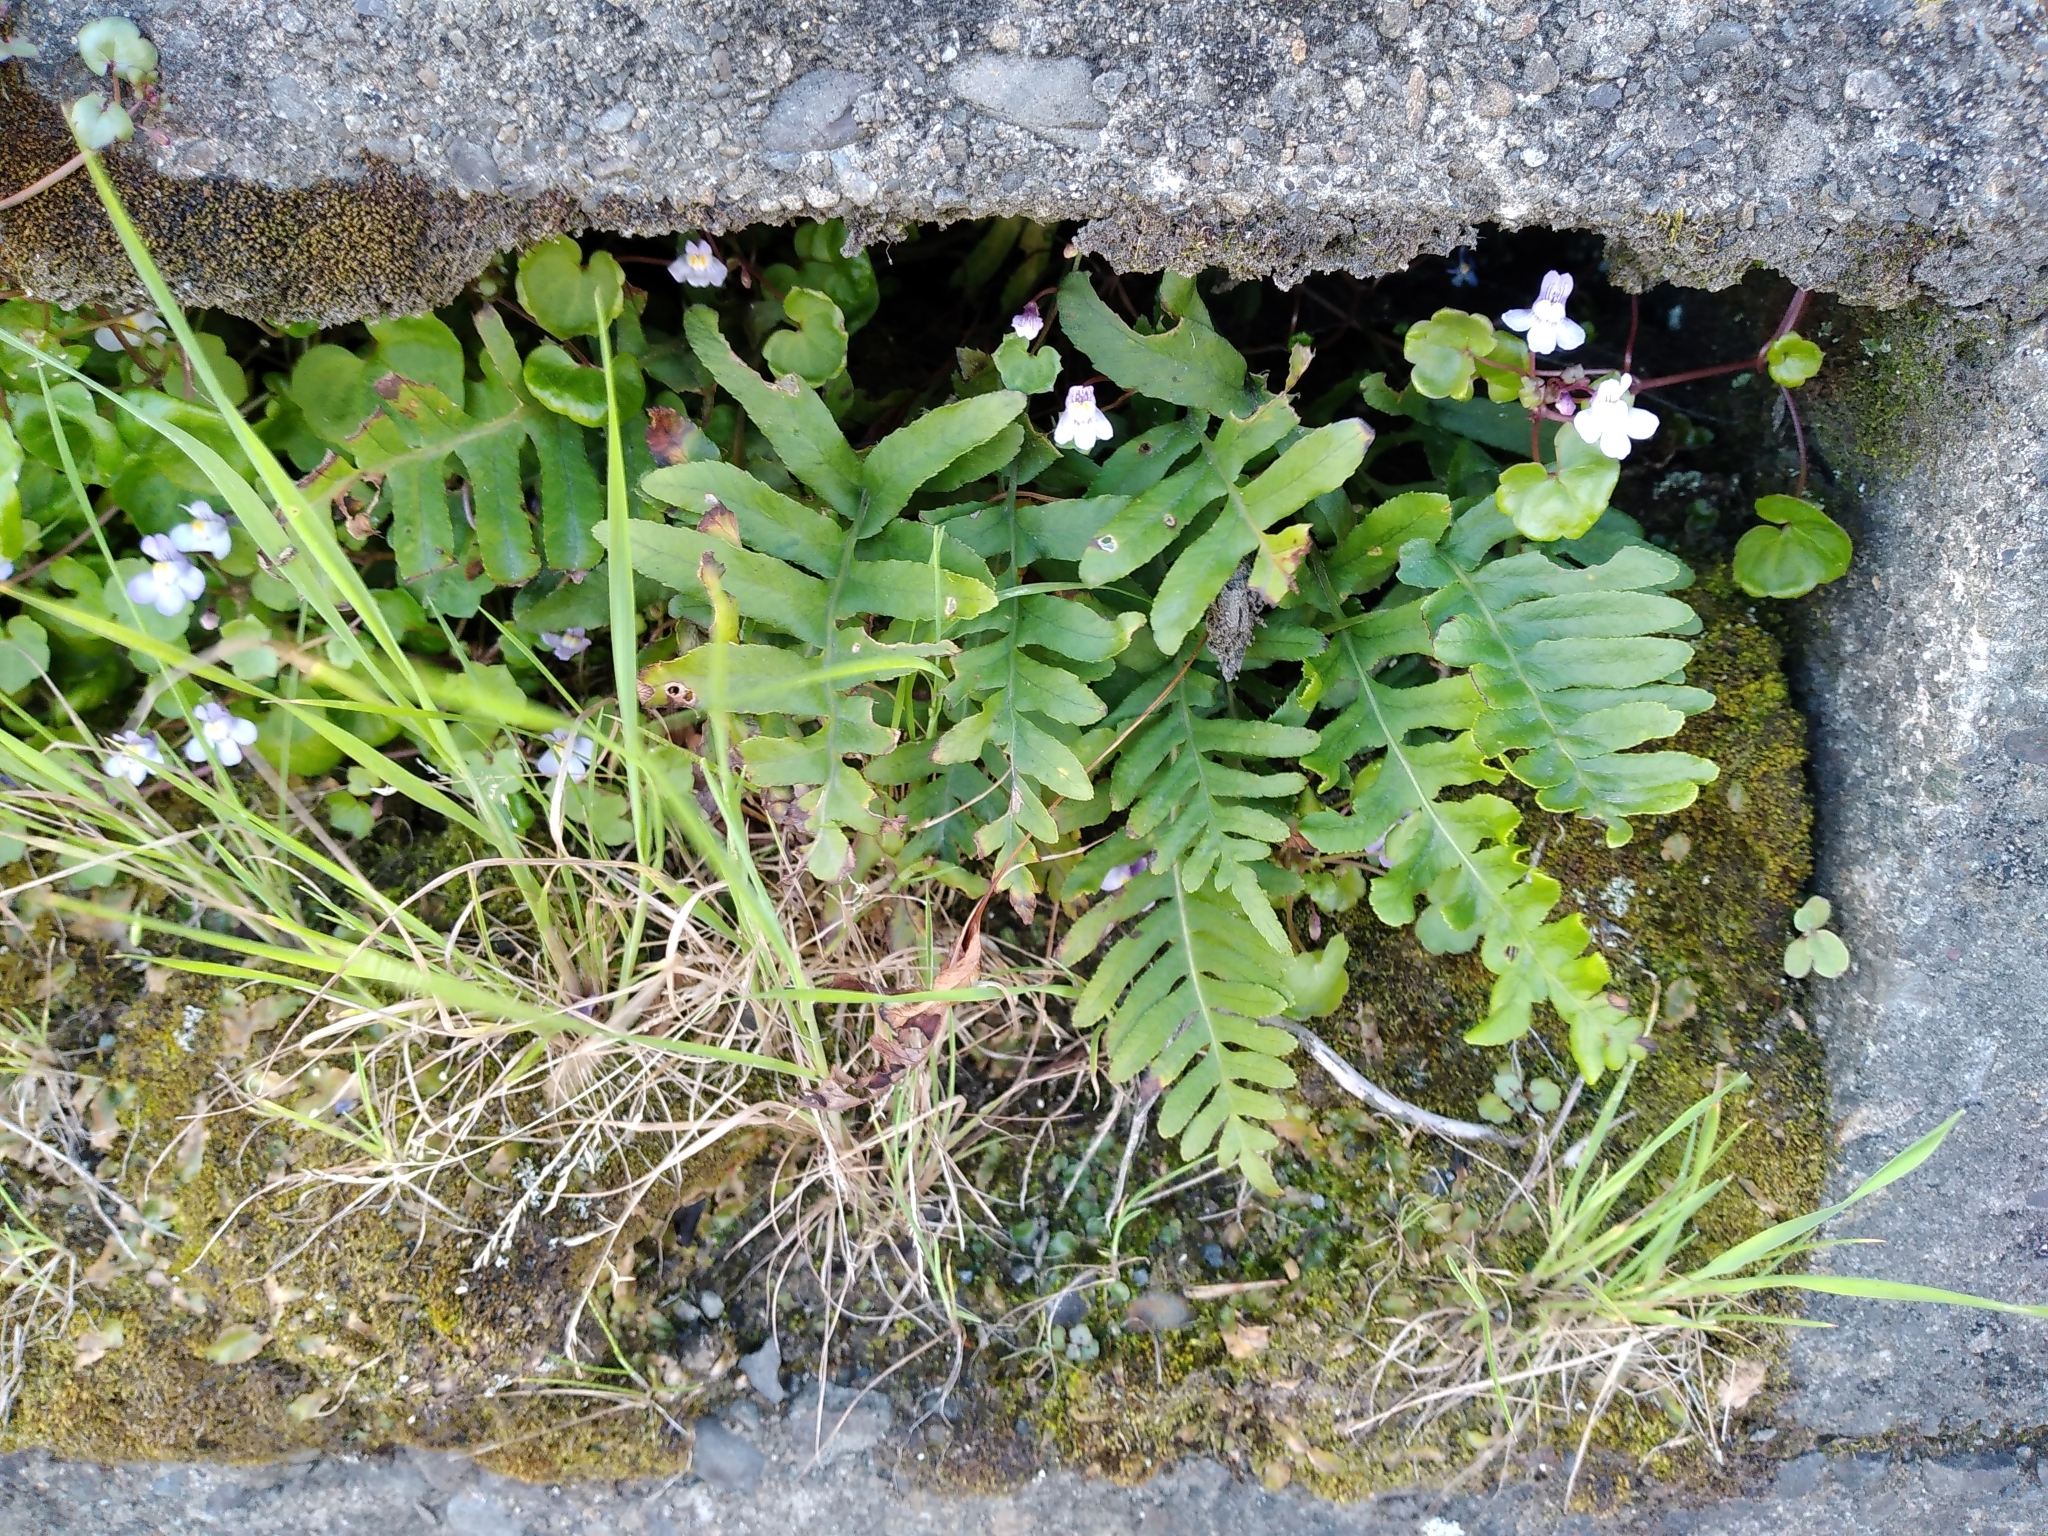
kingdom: Plantae
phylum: Tracheophyta
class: Polypodiopsida
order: Polypodiales
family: Polypodiaceae
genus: Polypodium
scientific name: Polypodium vulgare
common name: Common polypody
